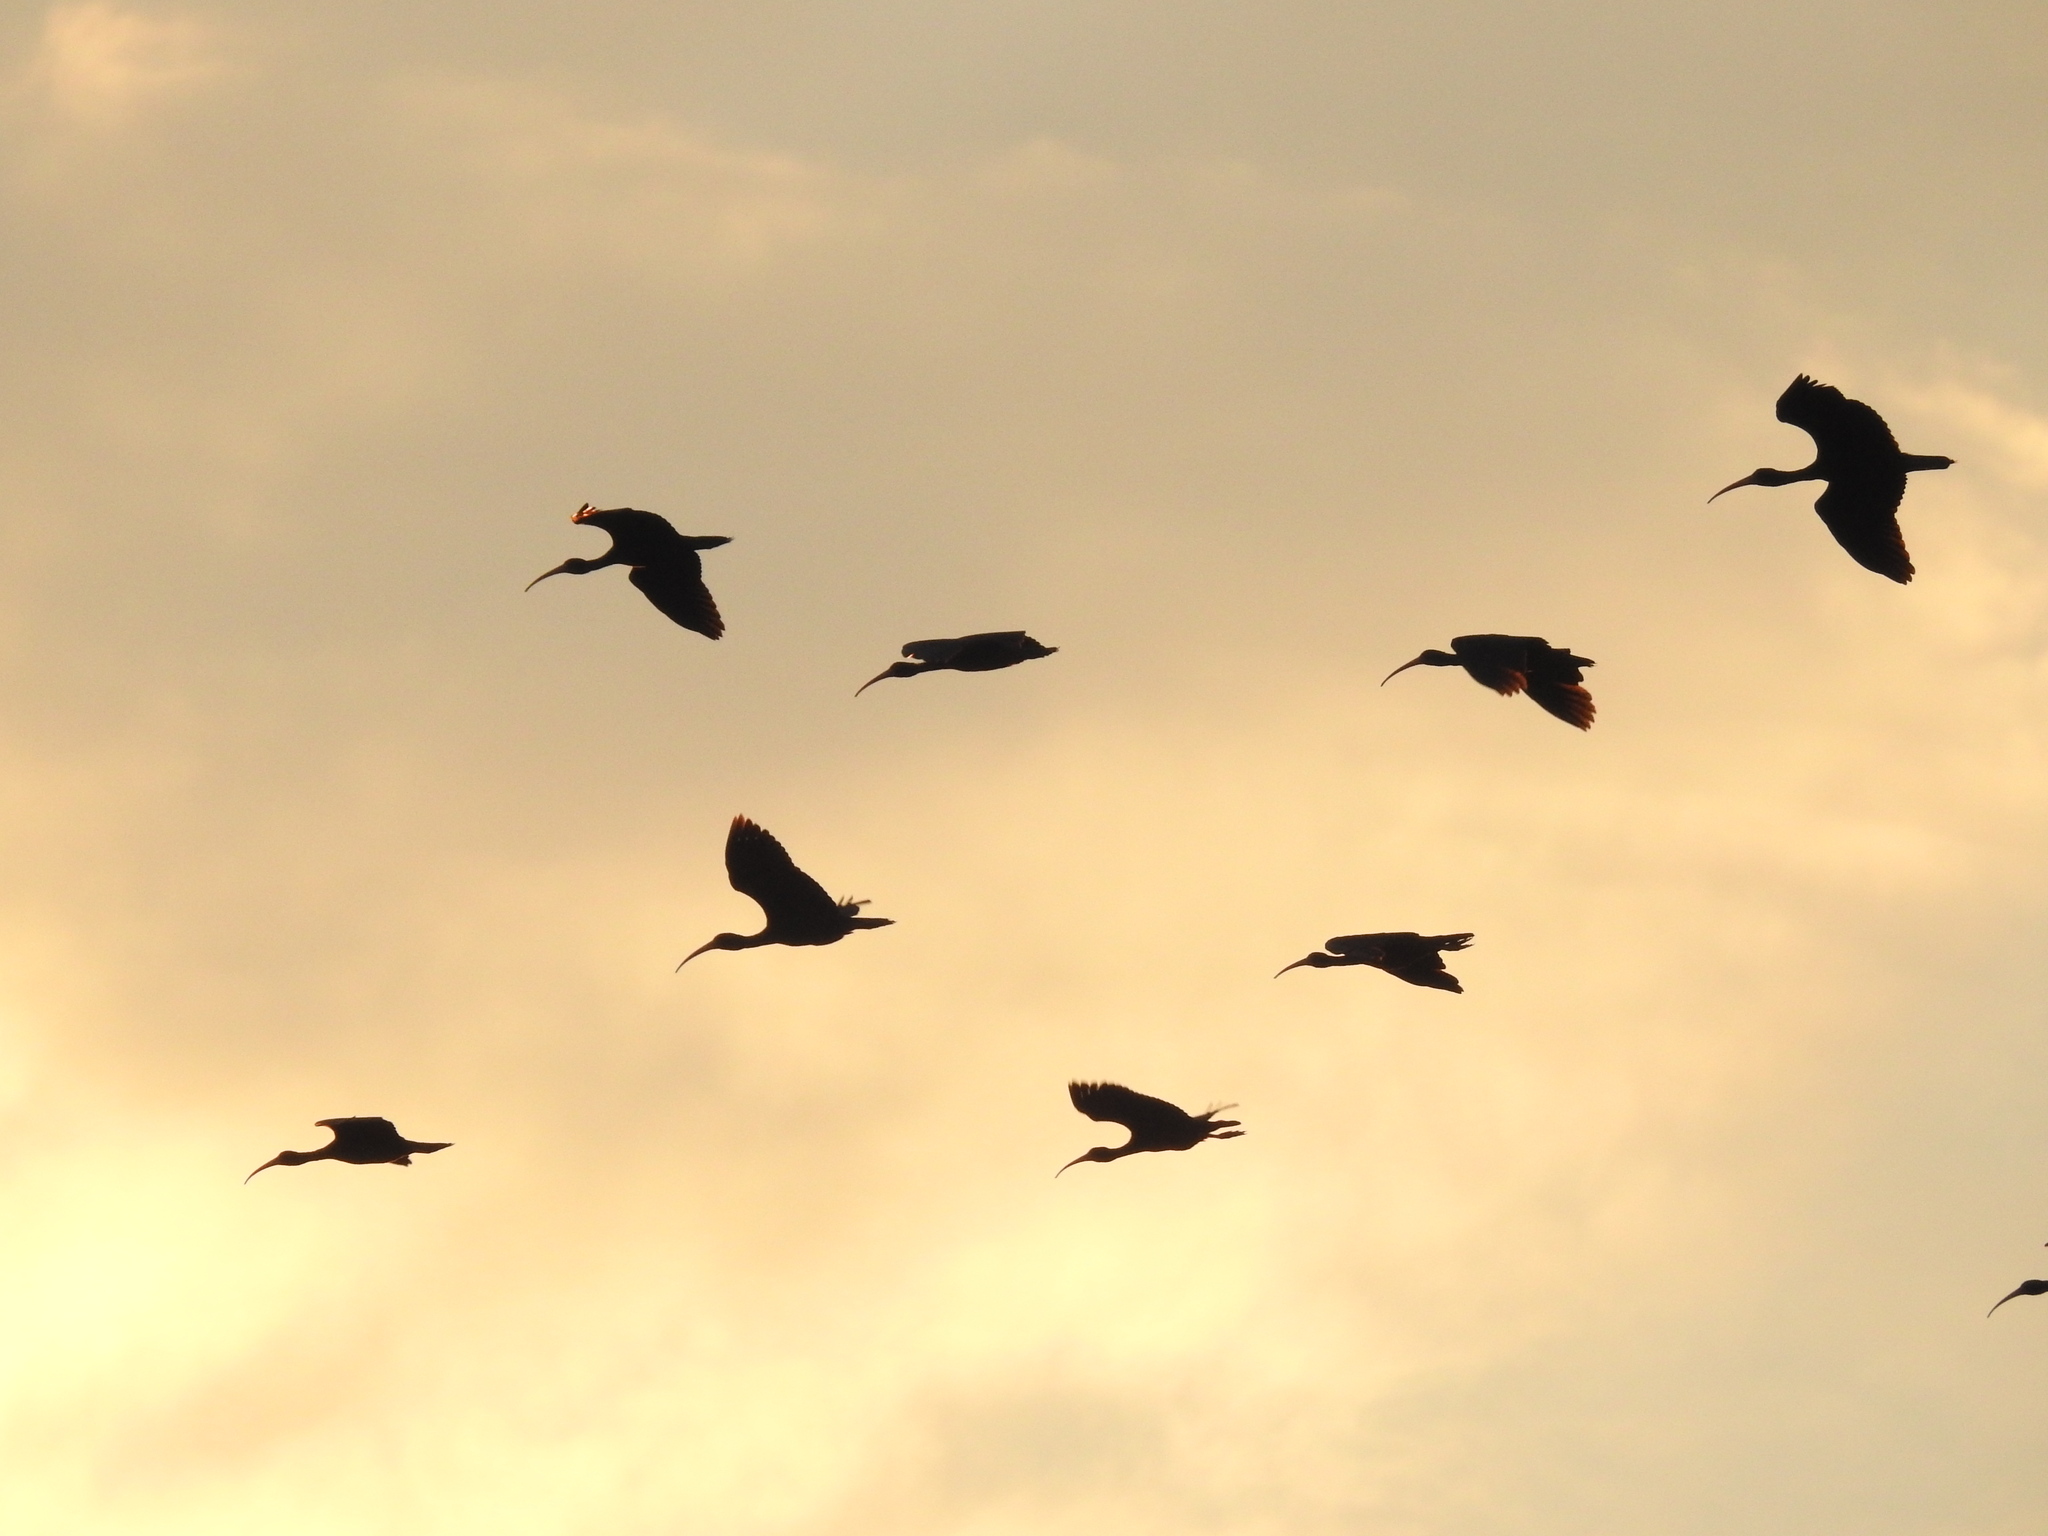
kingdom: Animalia
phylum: Chordata
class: Aves
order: Pelecaniformes
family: Threskiornithidae
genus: Phimosus
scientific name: Phimosus infuscatus
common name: Bare-faced ibis
